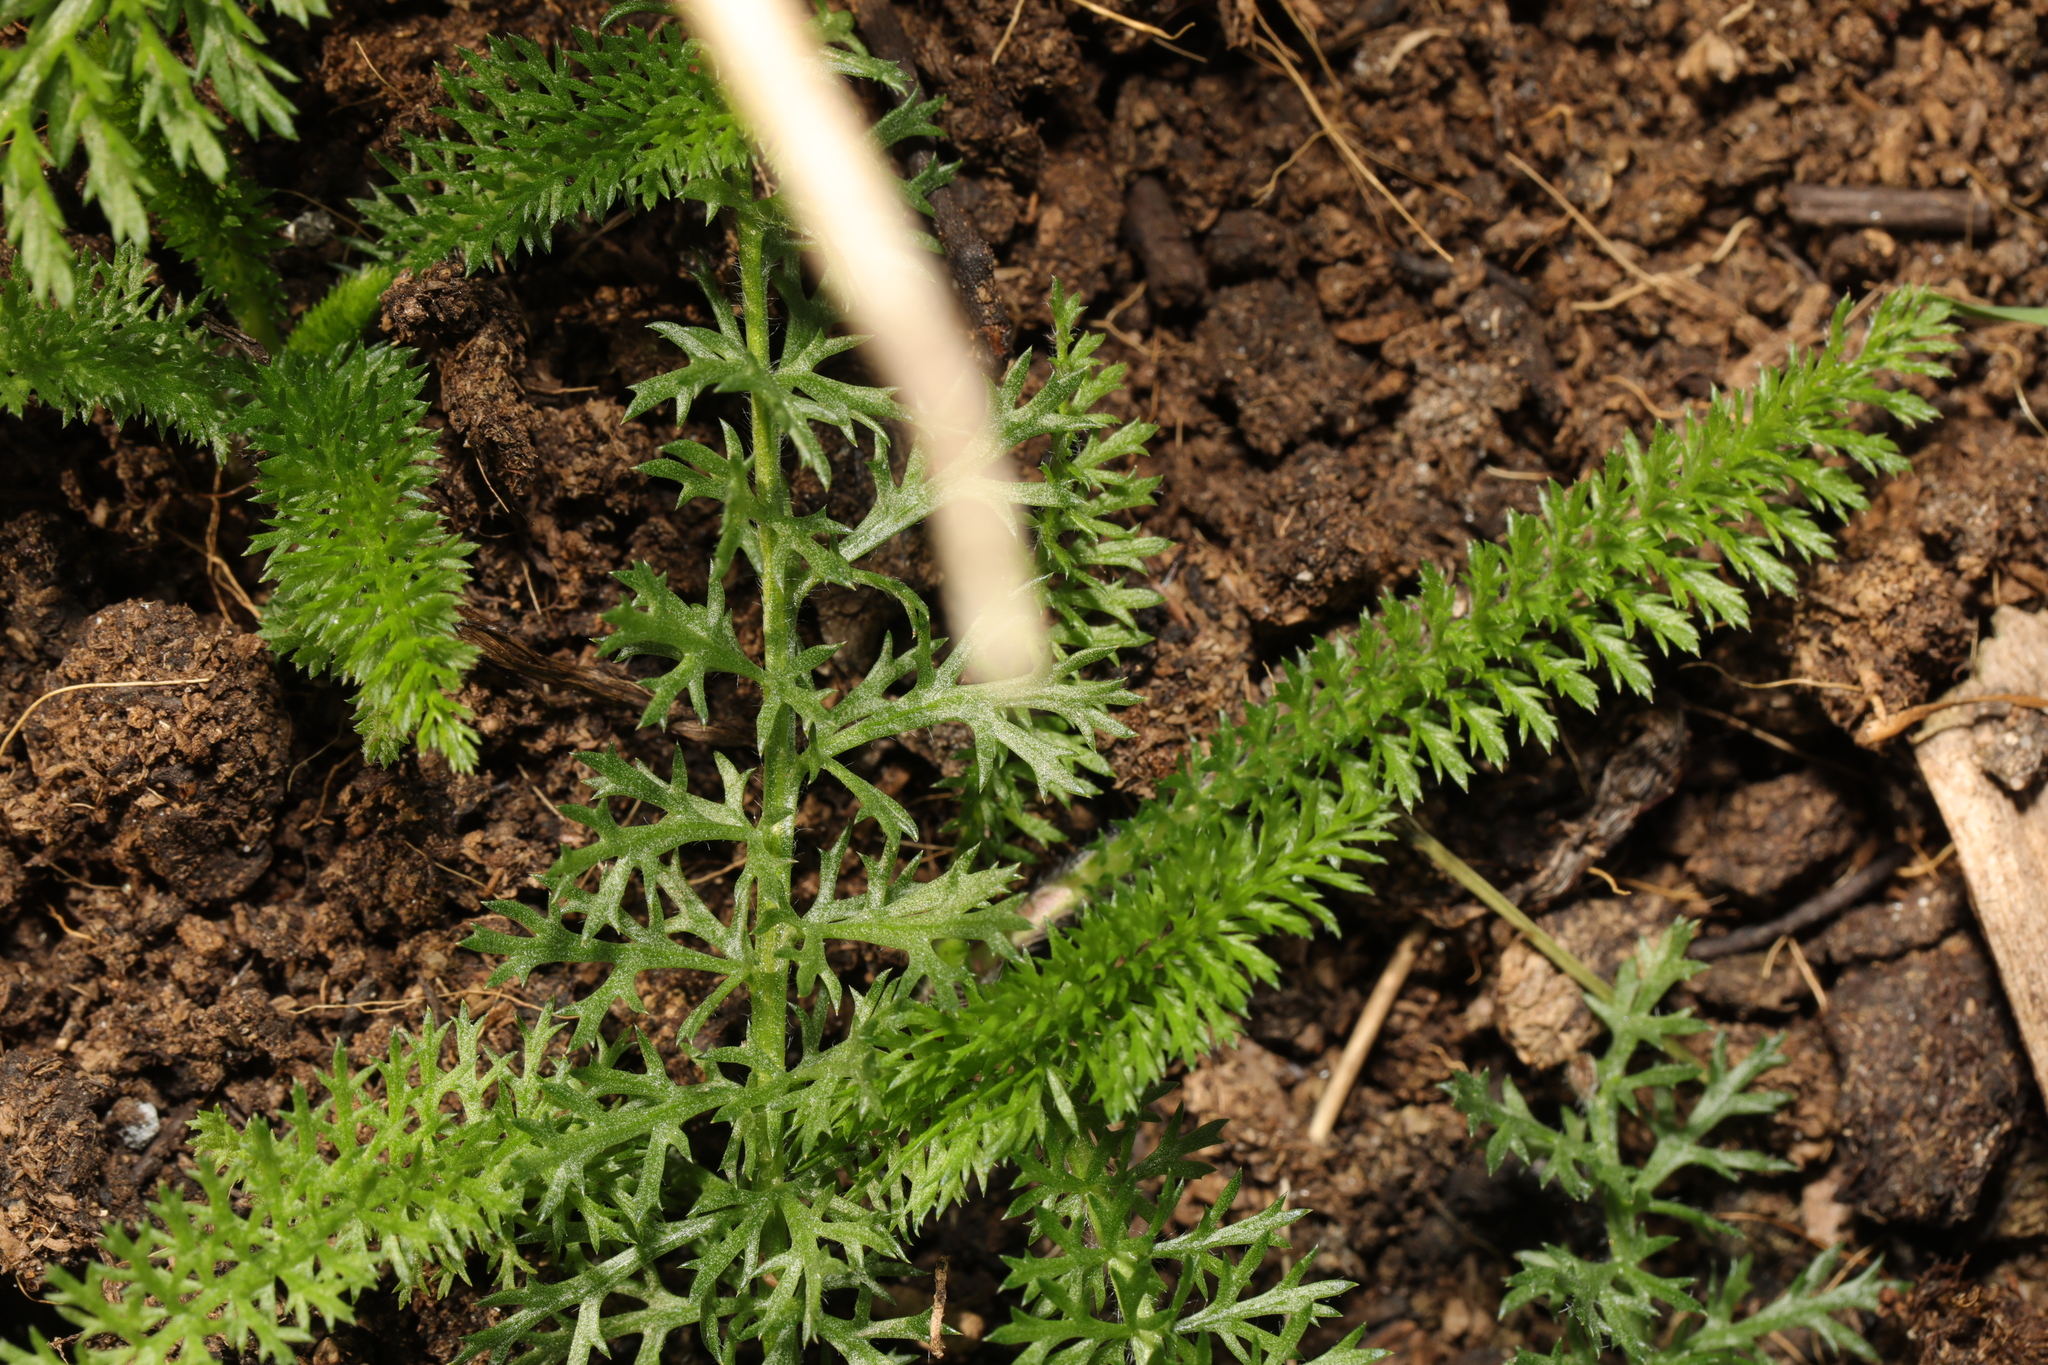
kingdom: Plantae
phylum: Tracheophyta
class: Magnoliopsida
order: Asterales
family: Asteraceae
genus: Achillea
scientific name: Achillea millefolium
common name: Yarrow
